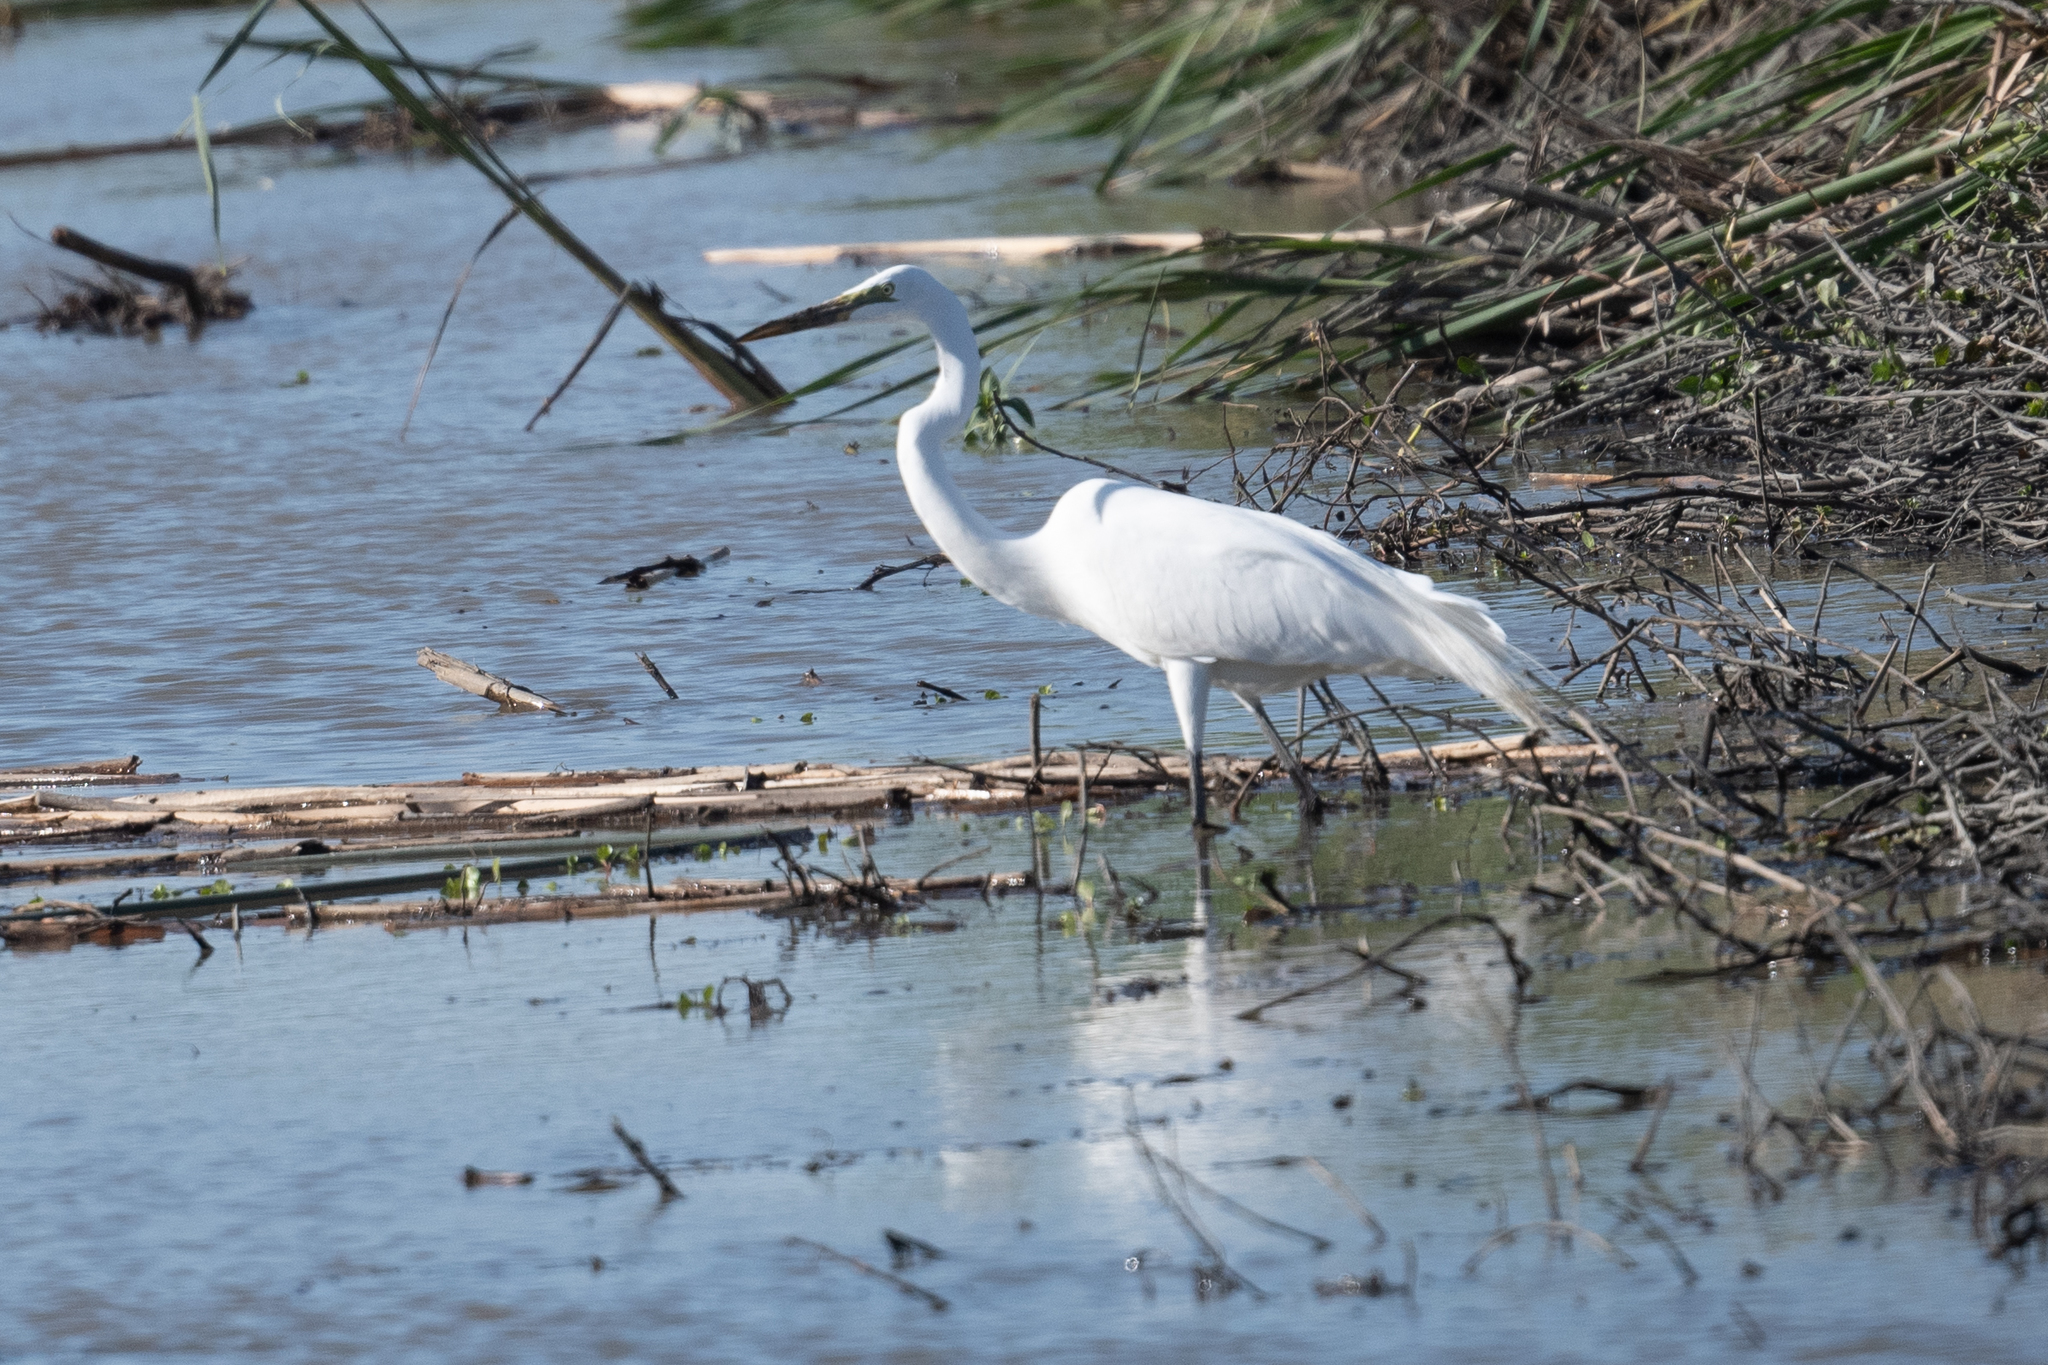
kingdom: Animalia
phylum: Chordata
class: Aves
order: Pelecaniformes
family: Ardeidae
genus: Ardea
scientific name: Ardea alba
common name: Great egret
